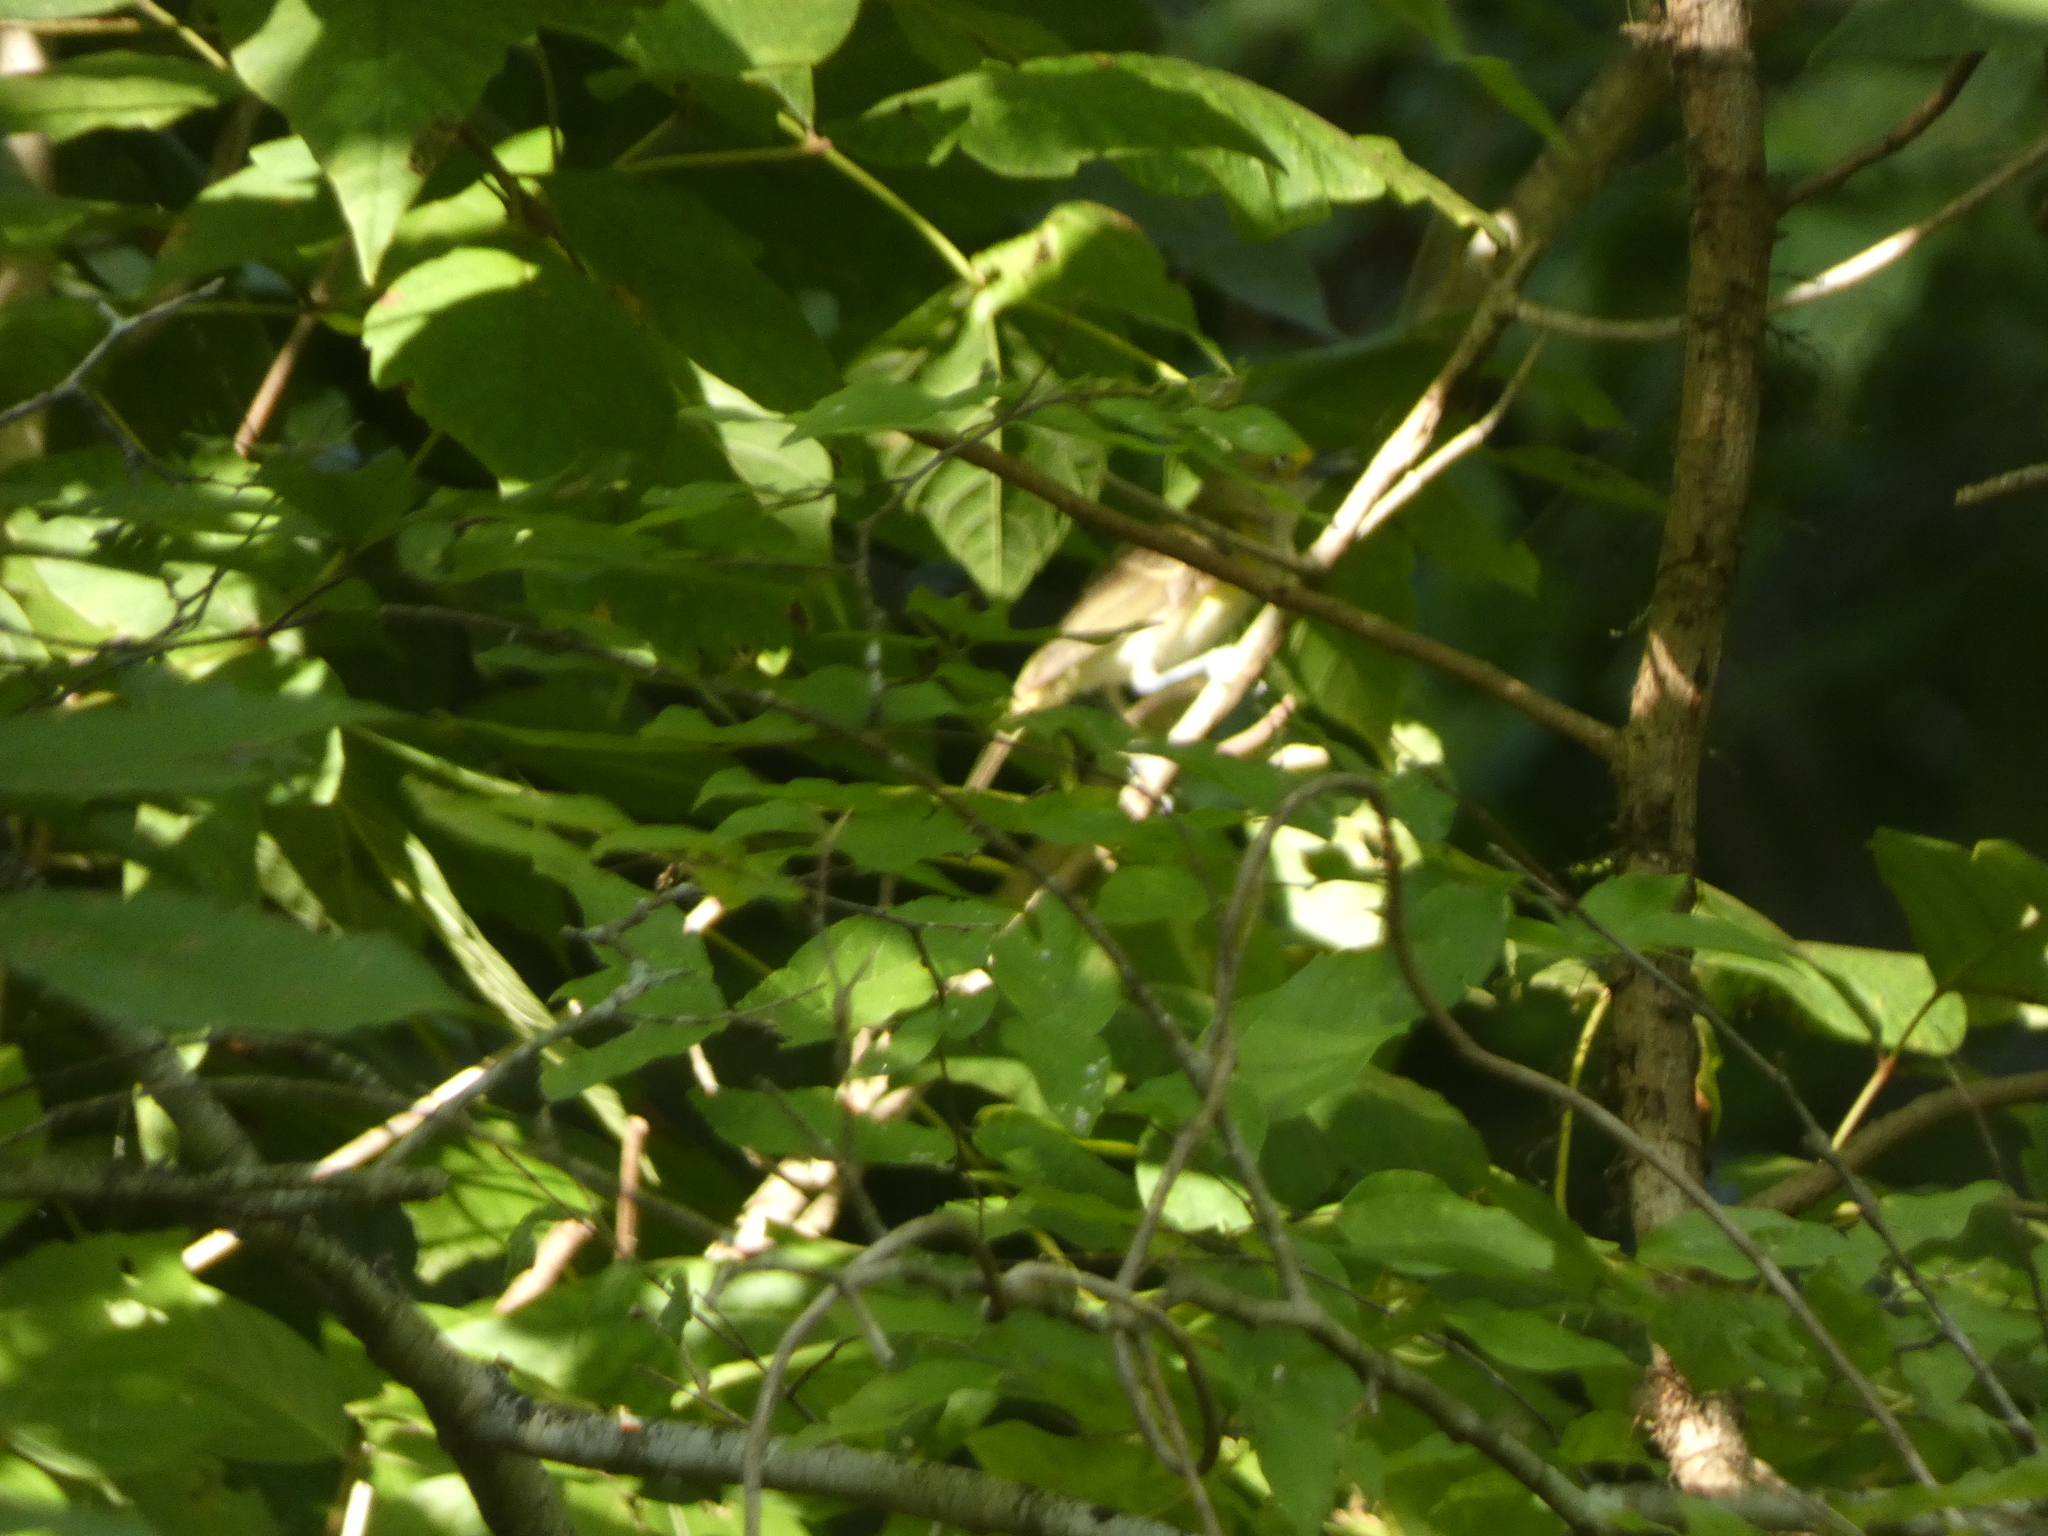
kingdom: Animalia
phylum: Chordata
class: Aves
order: Passeriformes
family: Vireonidae
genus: Vireo
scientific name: Vireo griseus
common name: White-eyed vireo
